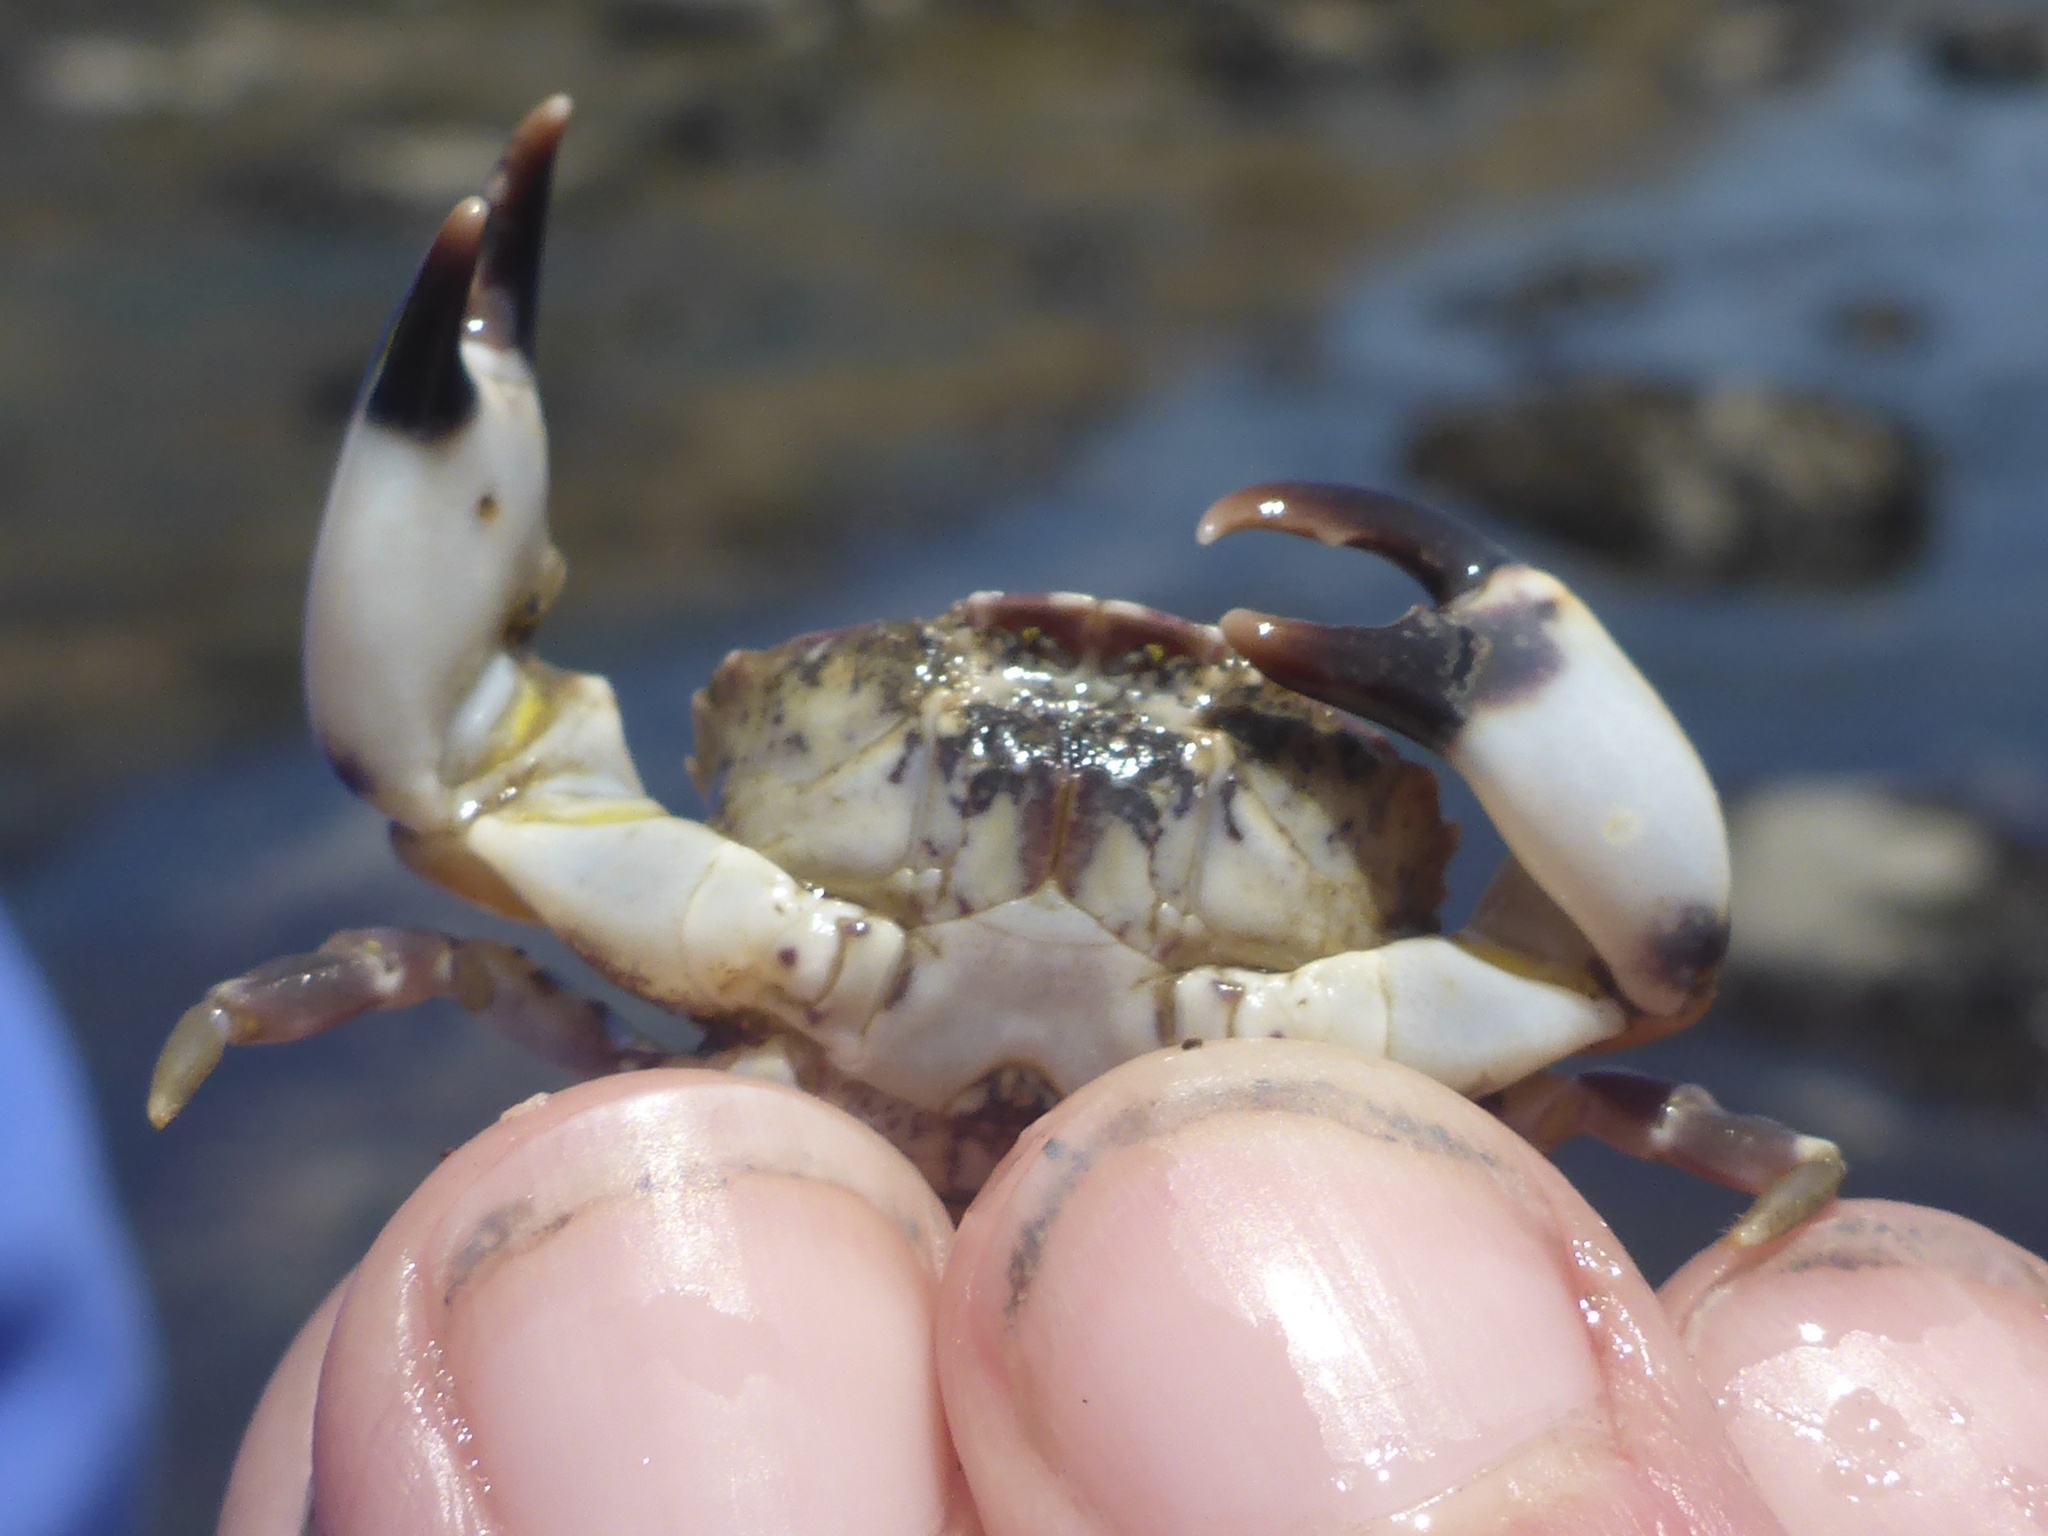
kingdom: Animalia
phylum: Arthropoda
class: Malacostraca
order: Decapoda
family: Panopeidae
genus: Lophopanopeus
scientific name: Lophopanopeus leucomanus
